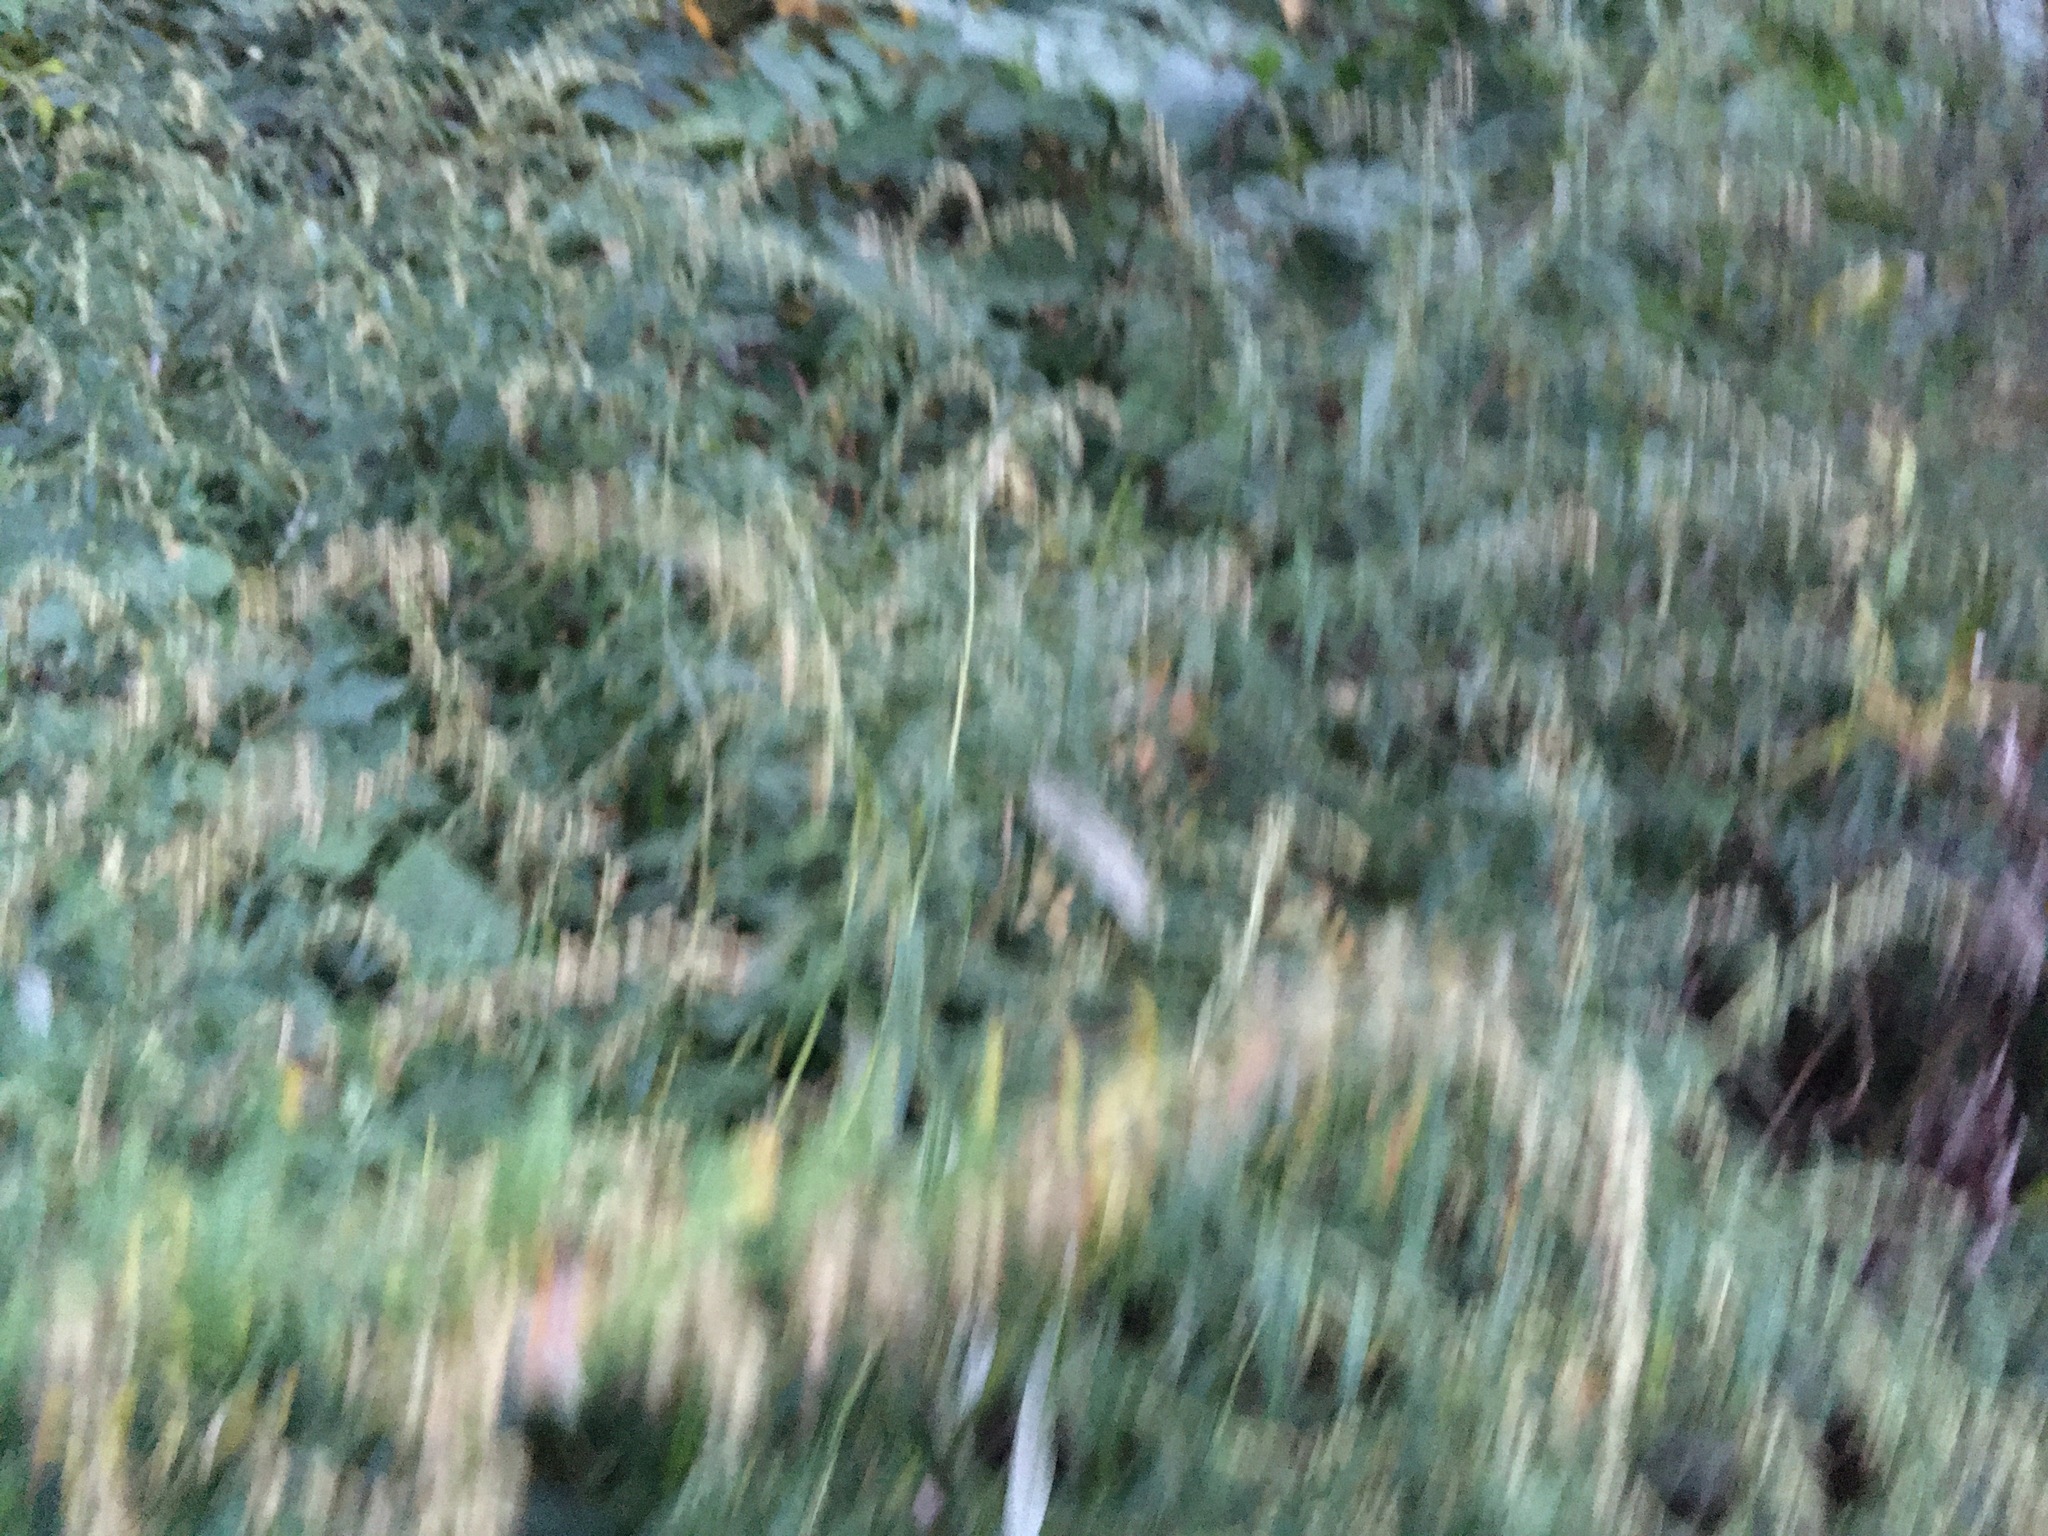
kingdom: Plantae
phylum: Tracheophyta
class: Magnoliopsida
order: Asterales
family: Asteraceae
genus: Artemisia
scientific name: Artemisia vulgaris
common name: Mugwort
